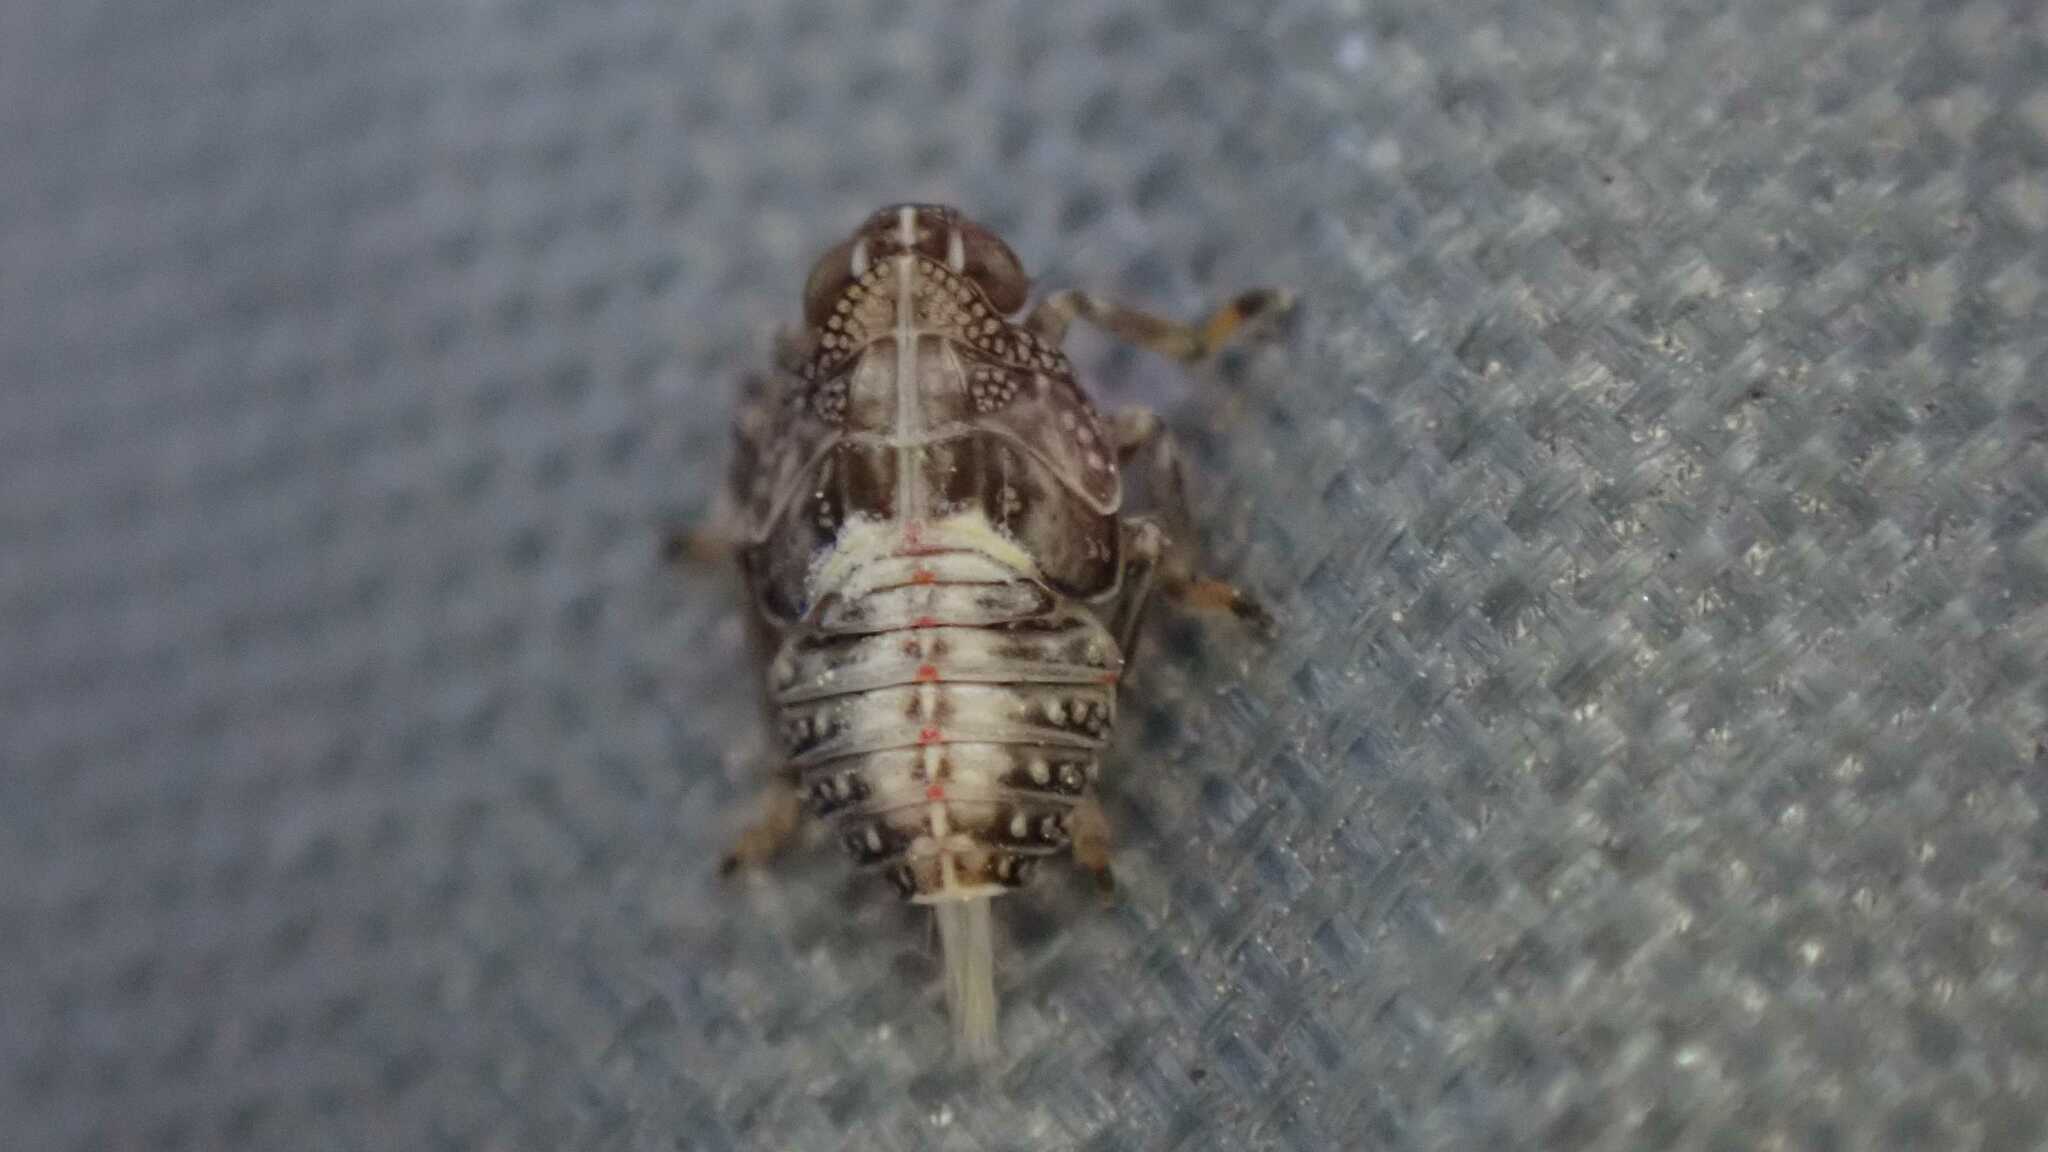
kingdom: Animalia
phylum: Arthropoda
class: Insecta
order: Hemiptera
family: Issidae
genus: Issus
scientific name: Issus coleoptratus
